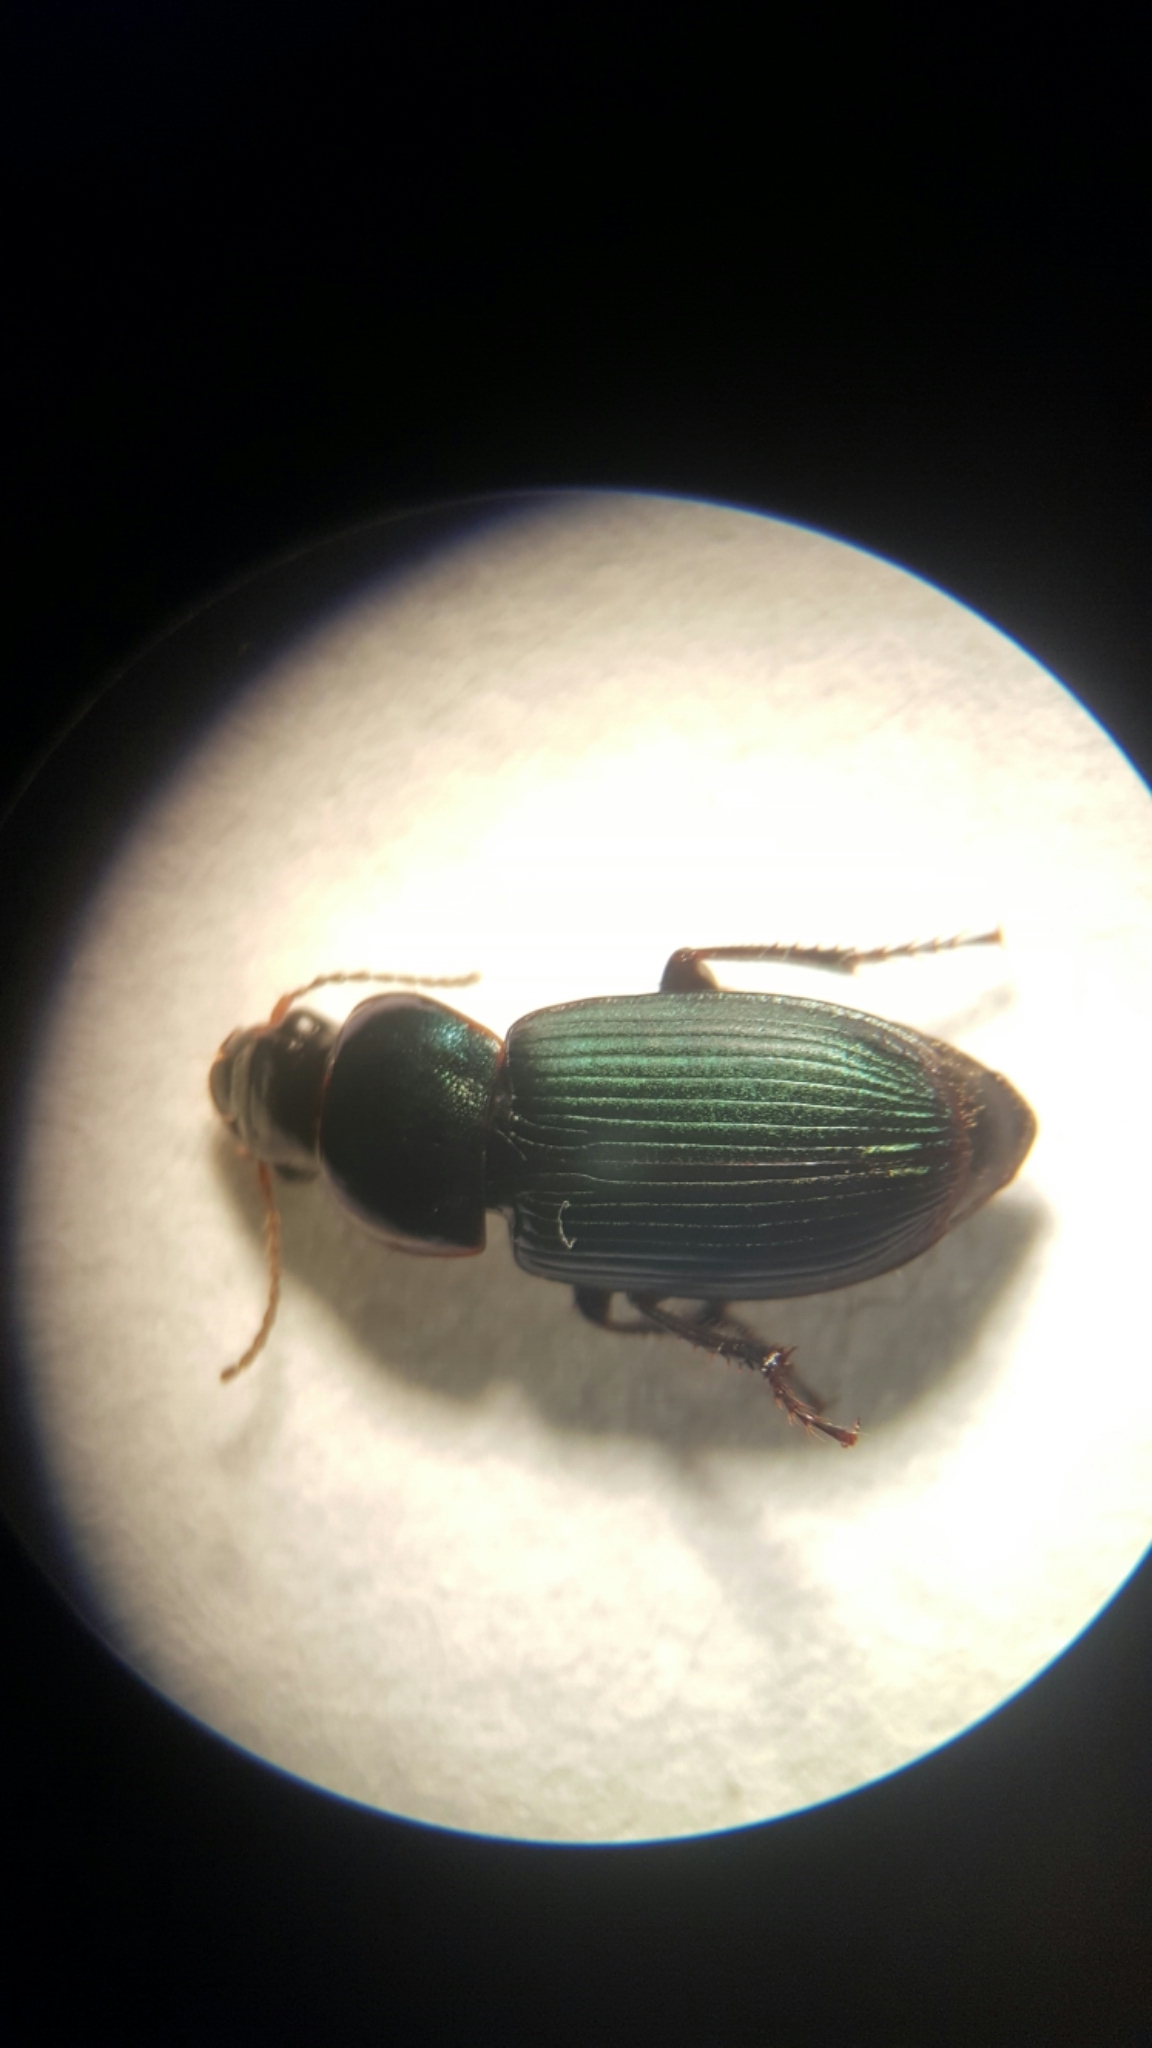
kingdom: Animalia
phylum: Arthropoda
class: Insecta
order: Coleoptera
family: Carabidae
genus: Harpalus
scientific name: Harpalus affinis
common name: Polychrome harp ground beetle
